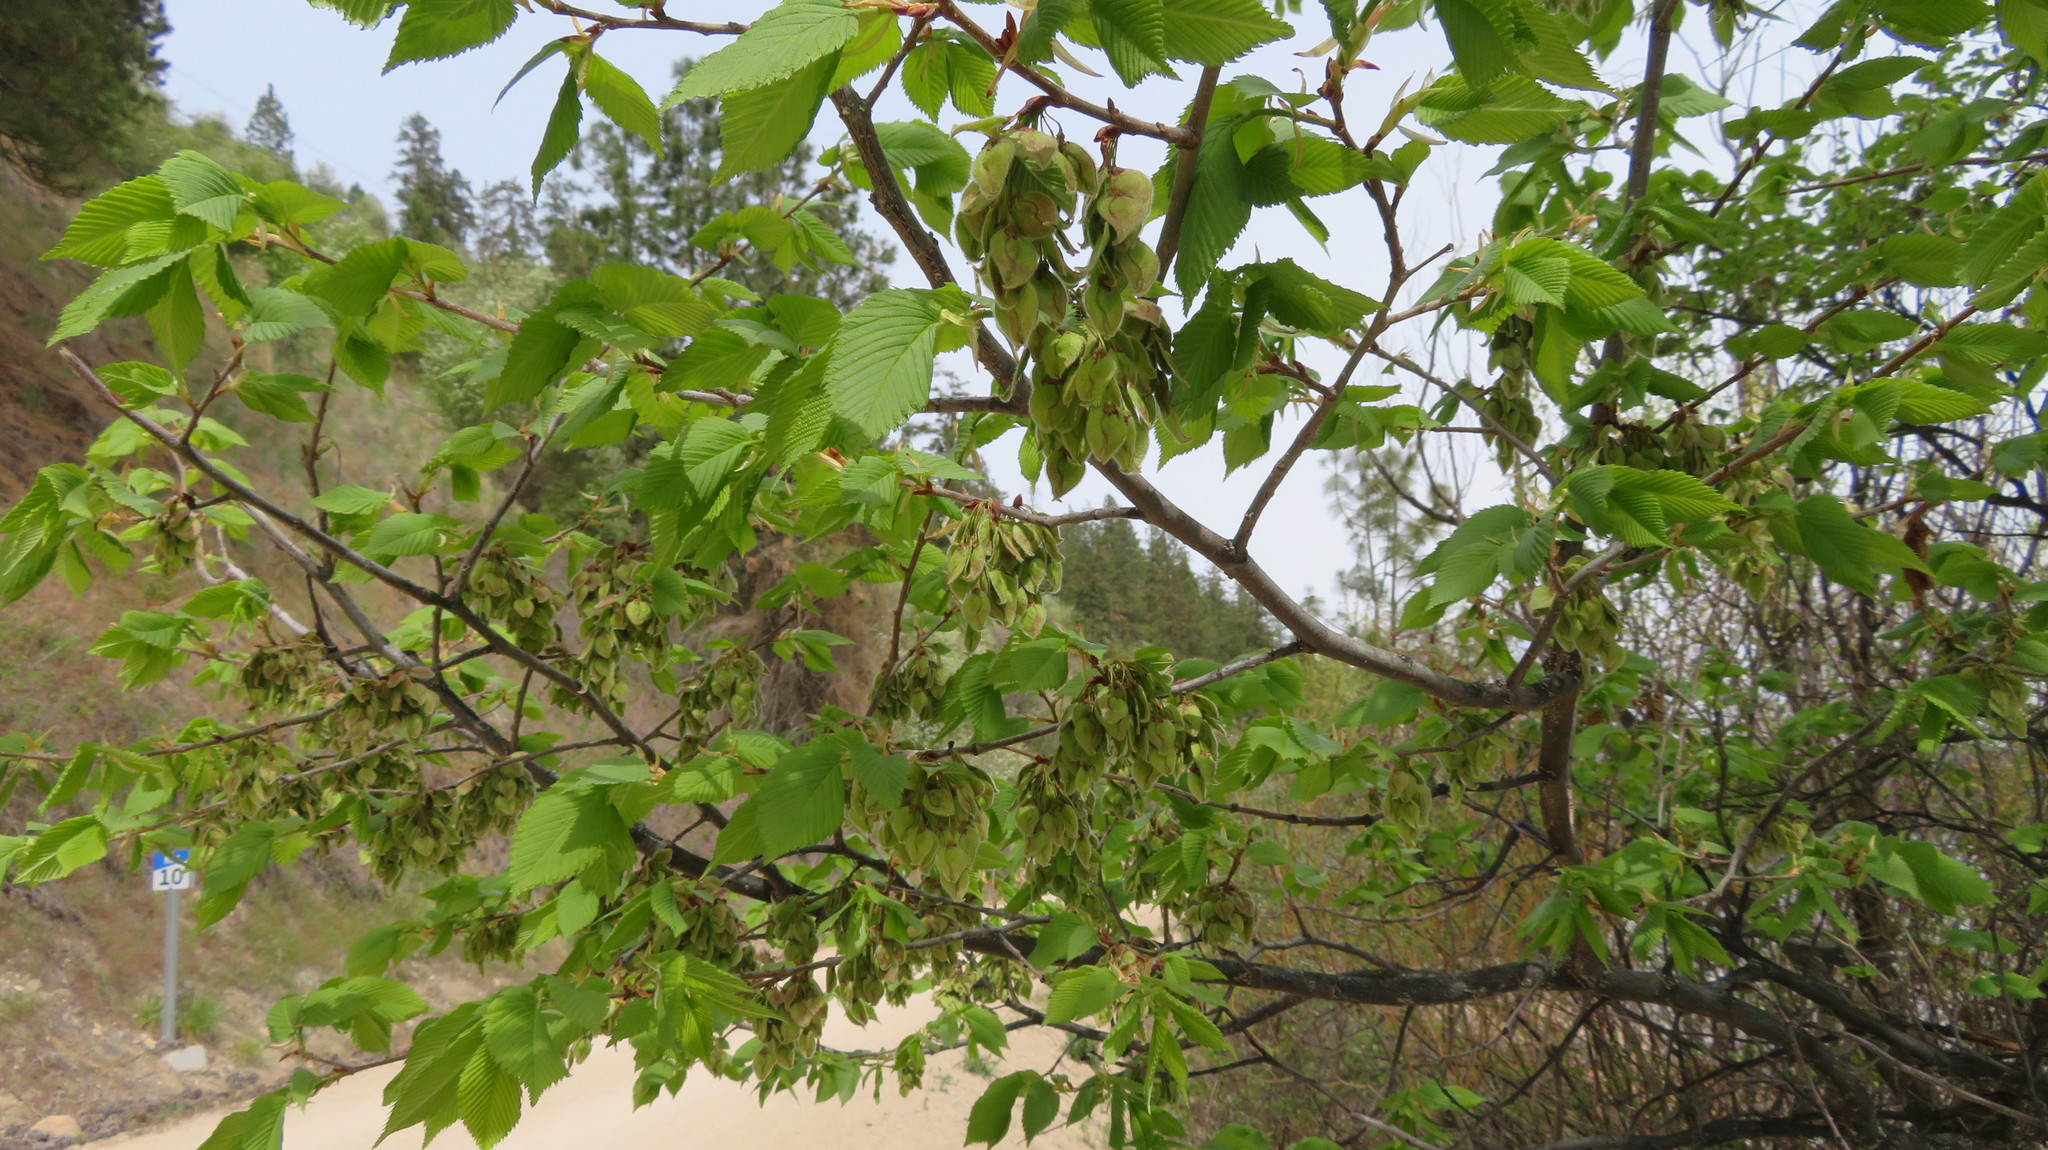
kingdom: Plantae
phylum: Tracheophyta
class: Magnoliopsida
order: Rosales
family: Ulmaceae
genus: Ulmus
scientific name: Ulmus americana
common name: American elm
